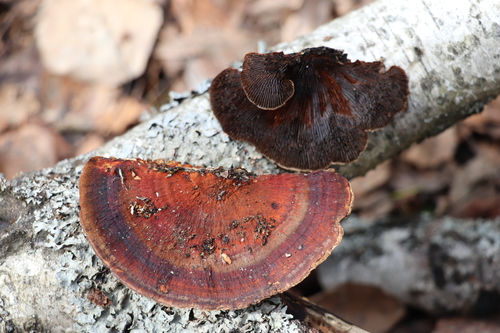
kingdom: Fungi
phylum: Basidiomycota
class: Agaricomycetes
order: Polyporales
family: Polyporaceae
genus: Daedaleopsis
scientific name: Daedaleopsis
